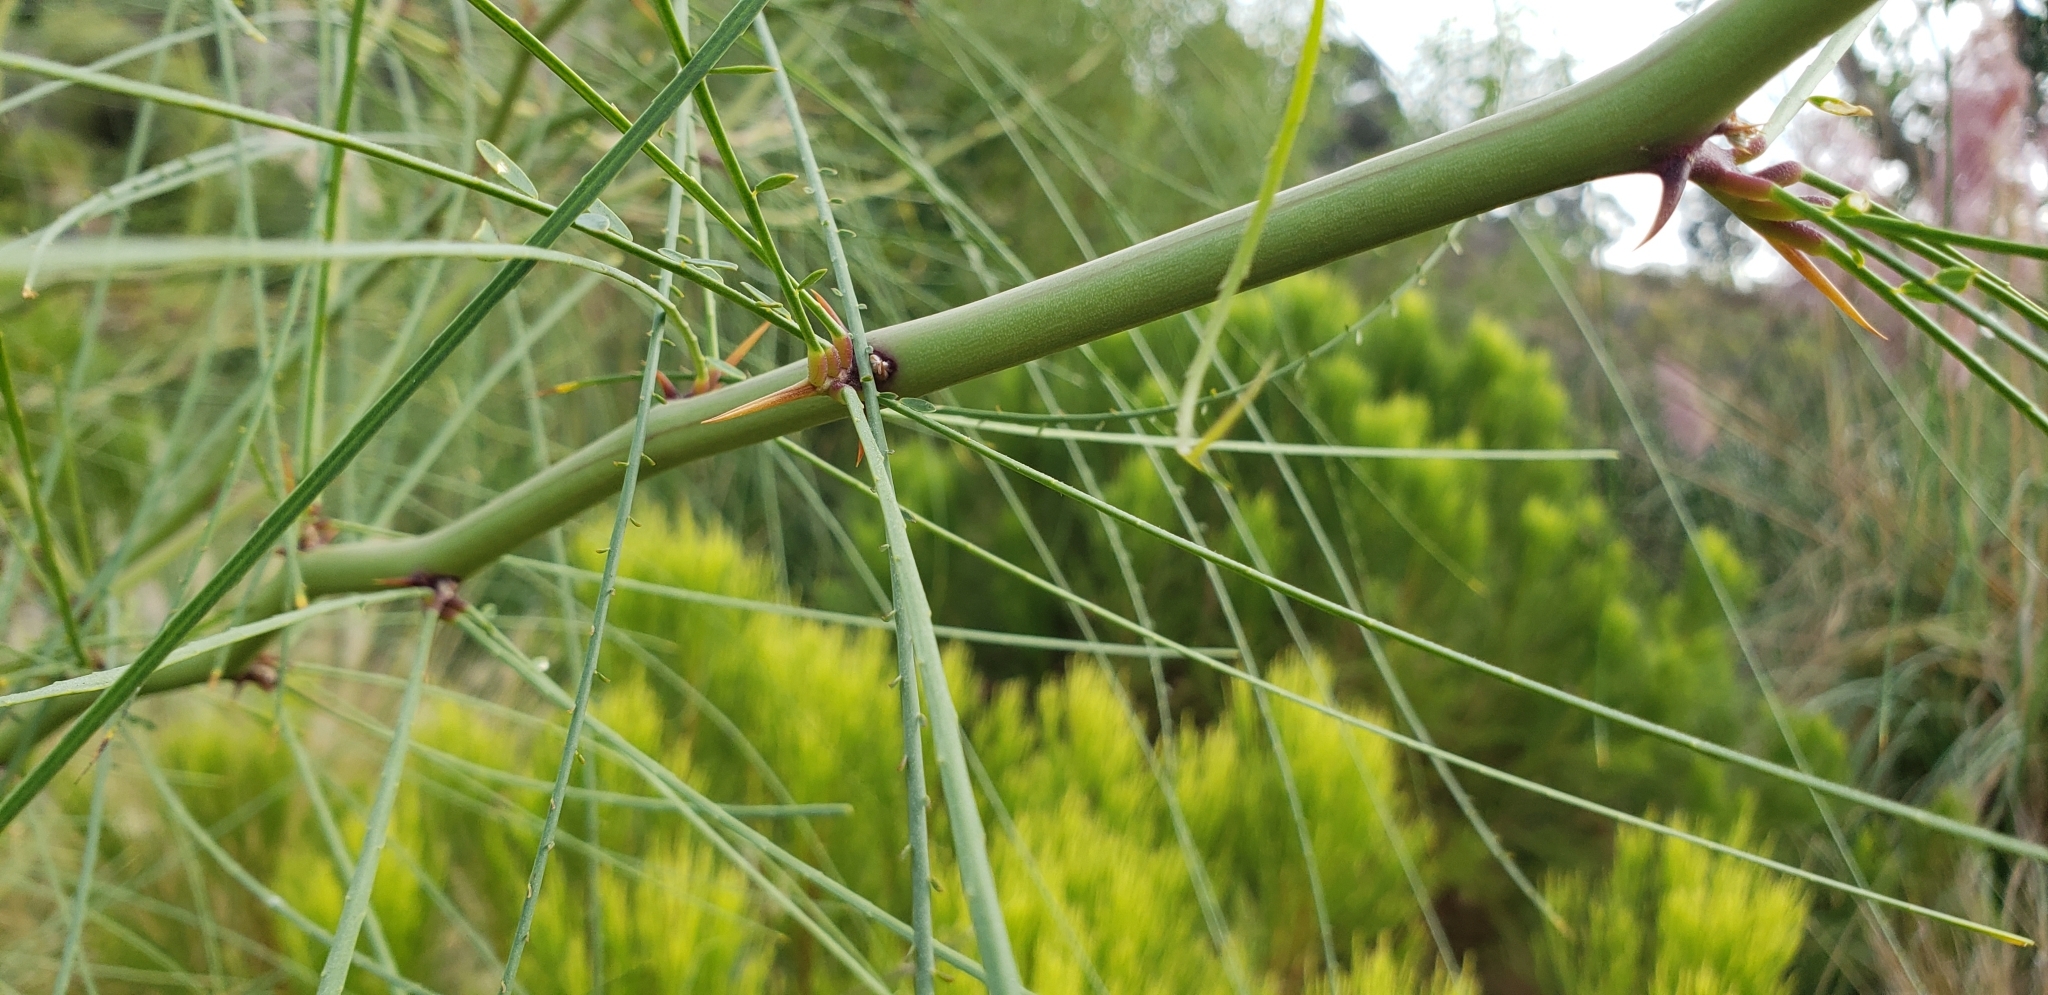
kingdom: Plantae
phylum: Tracheophyta
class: Magnoliopsida
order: Fabales
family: Fabaceae
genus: Parkinsonia
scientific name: Parkinsonia aculeata
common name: Jerusalem thorn
